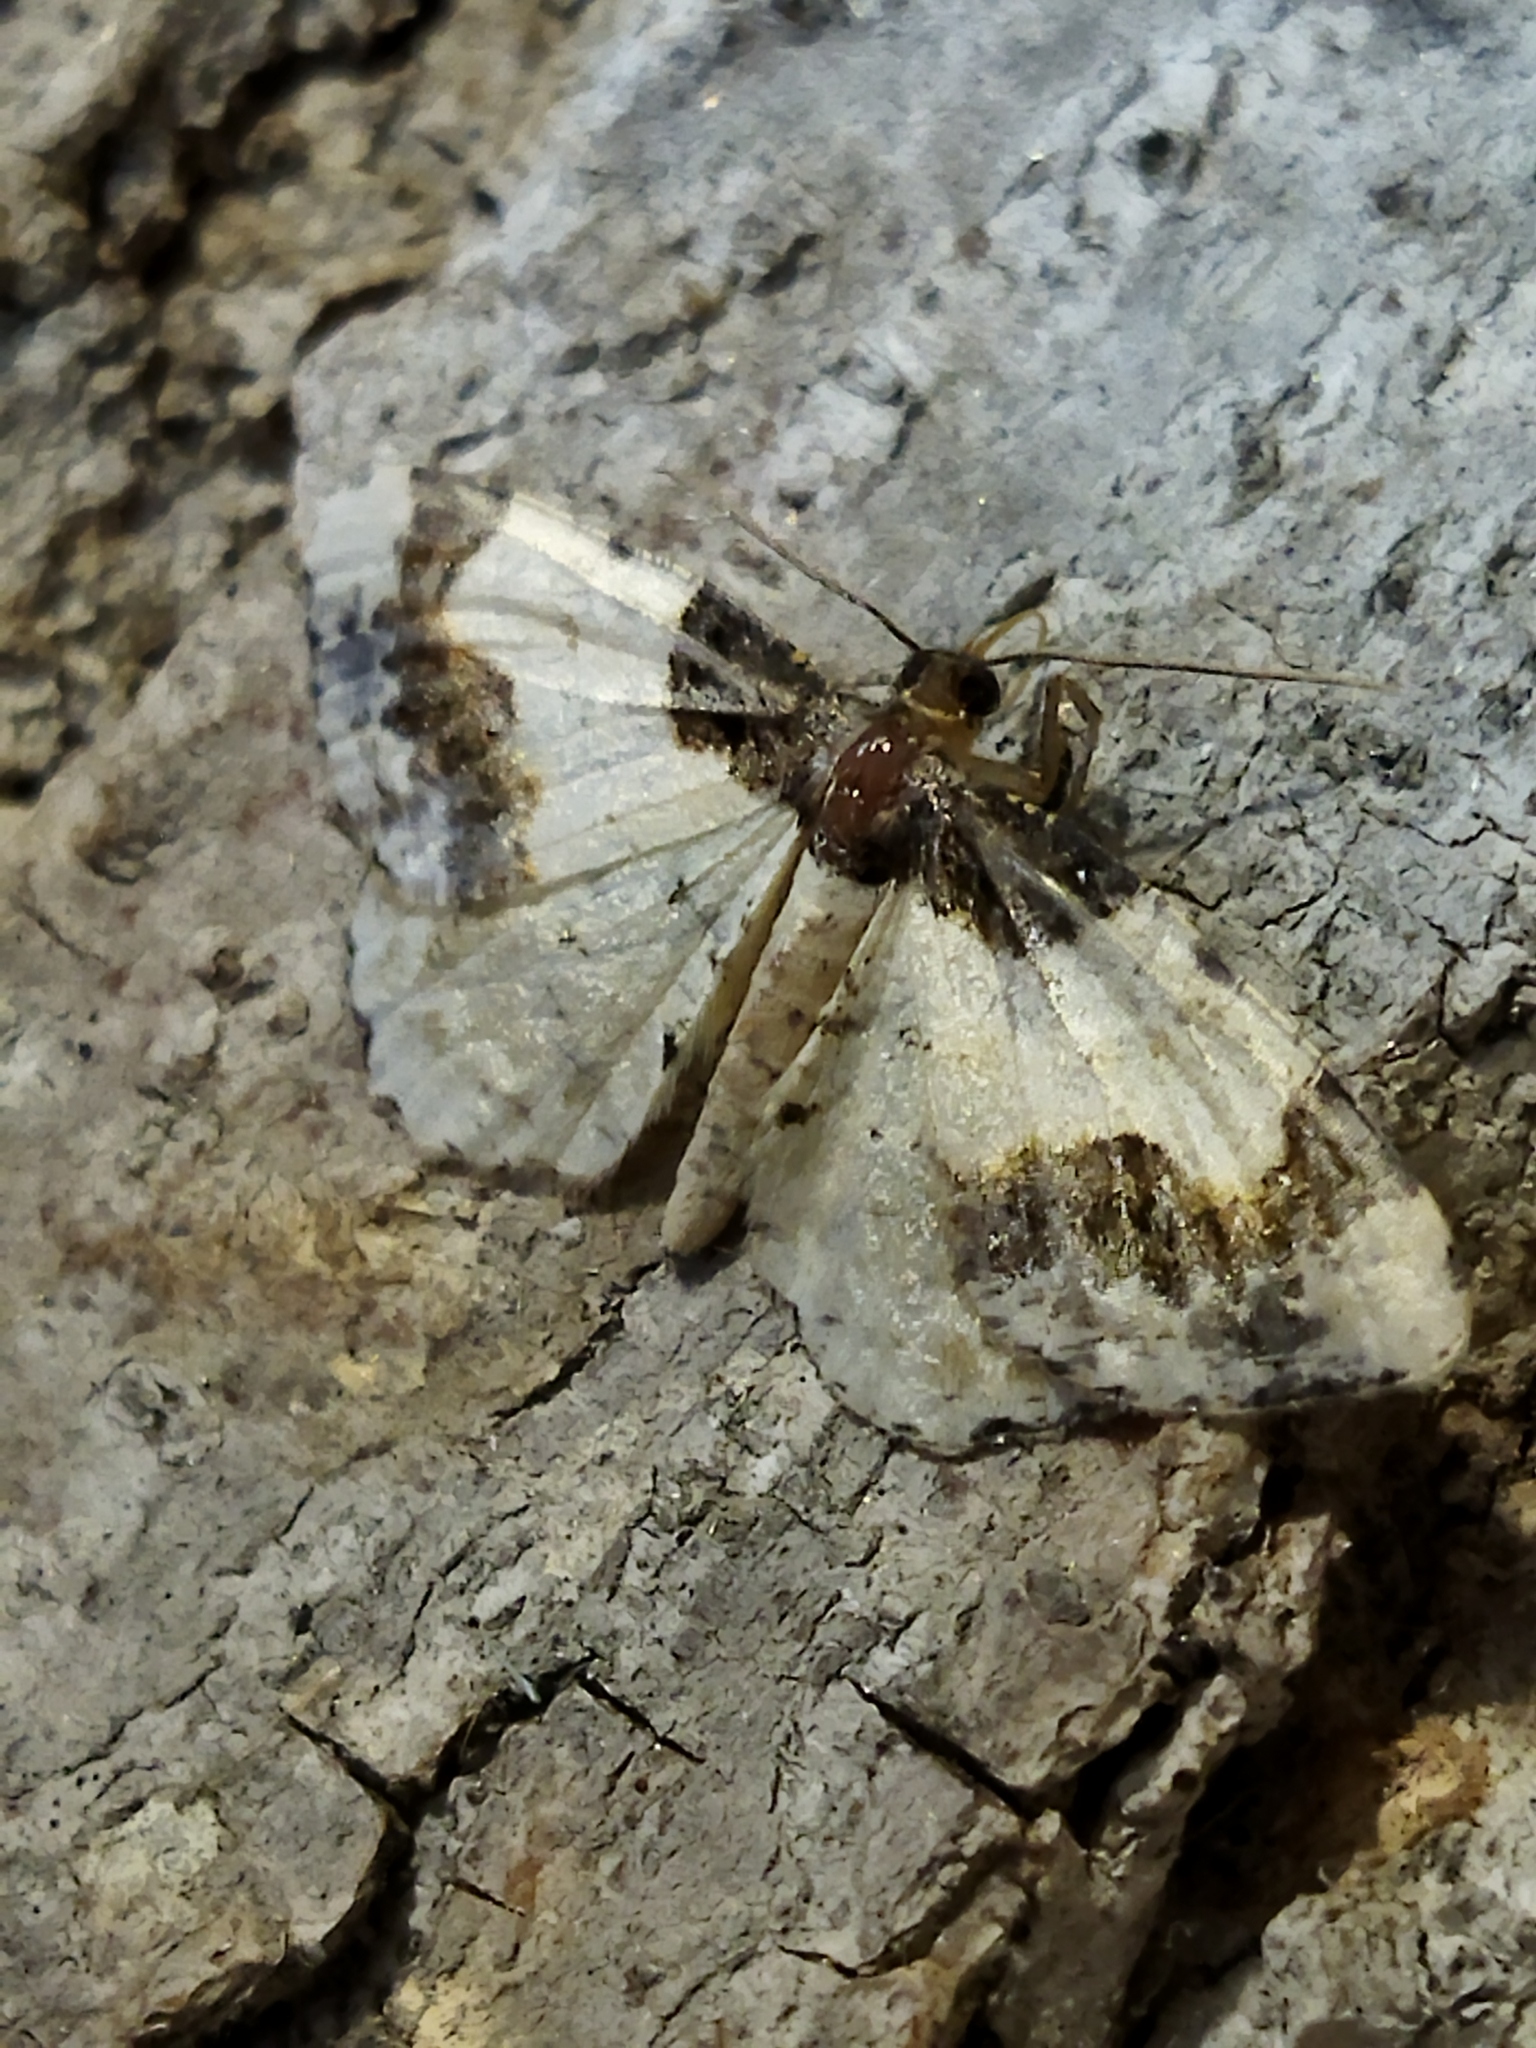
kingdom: Animalia
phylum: Arthropoda
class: Insecta
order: Lepidoptera
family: Geometridae
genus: Ligdia
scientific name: Ligdia adustata
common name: Scorched carpet
